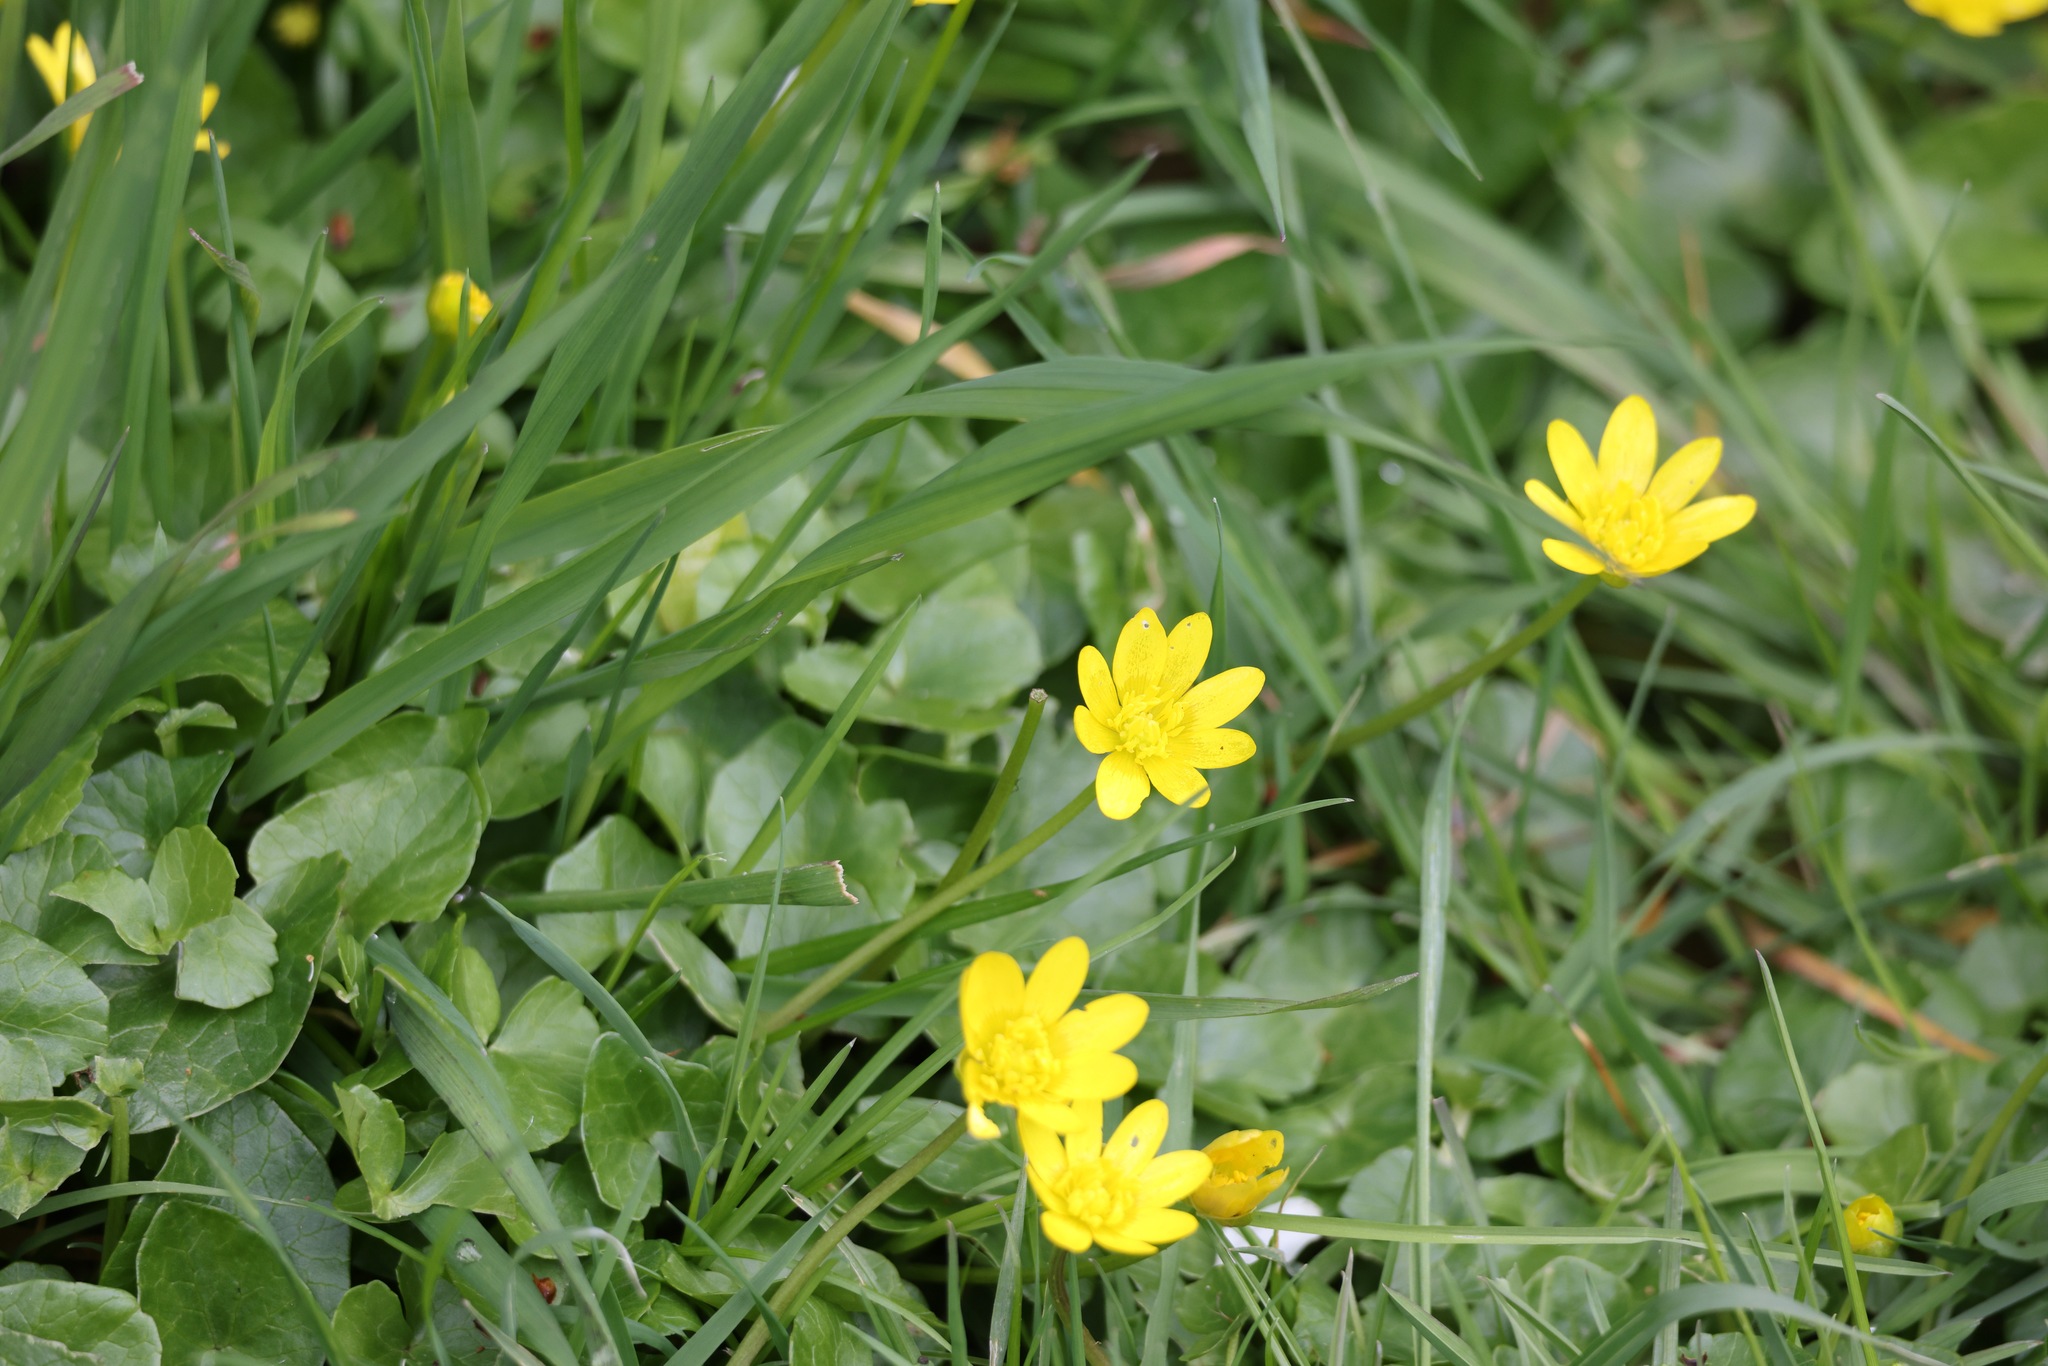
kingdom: Plantae
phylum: Tracheophyta
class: Magnoliopsida
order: Ranunculales
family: Ranunculaceae
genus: Ficaria
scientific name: Ficaria verna
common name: Lesser celandine
